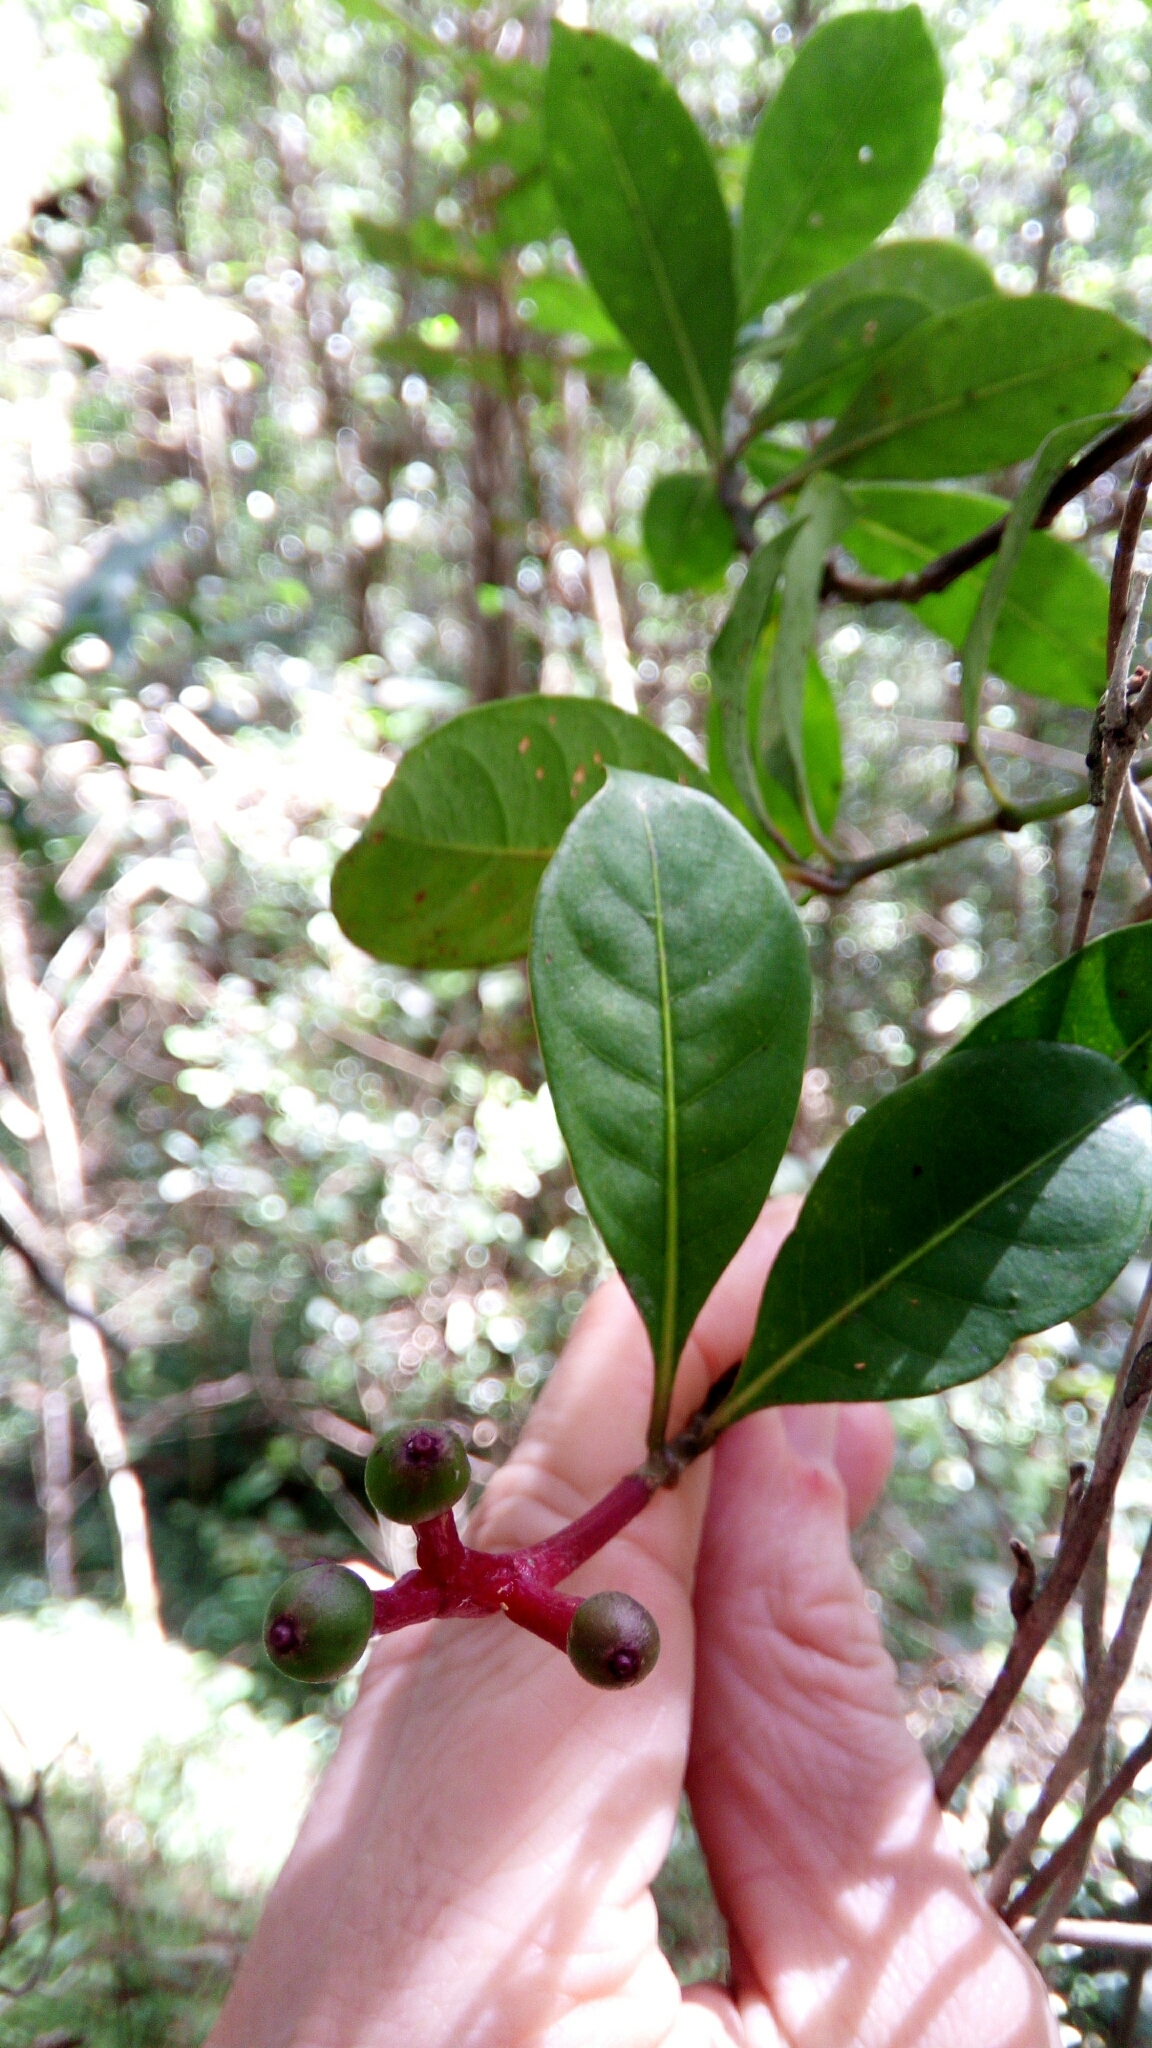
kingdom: Plantae
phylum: Tracheophyta
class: Magnoliopsida
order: Gentianales
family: Rubiaceae
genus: Chassalia
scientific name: Chassalia acutiflora
